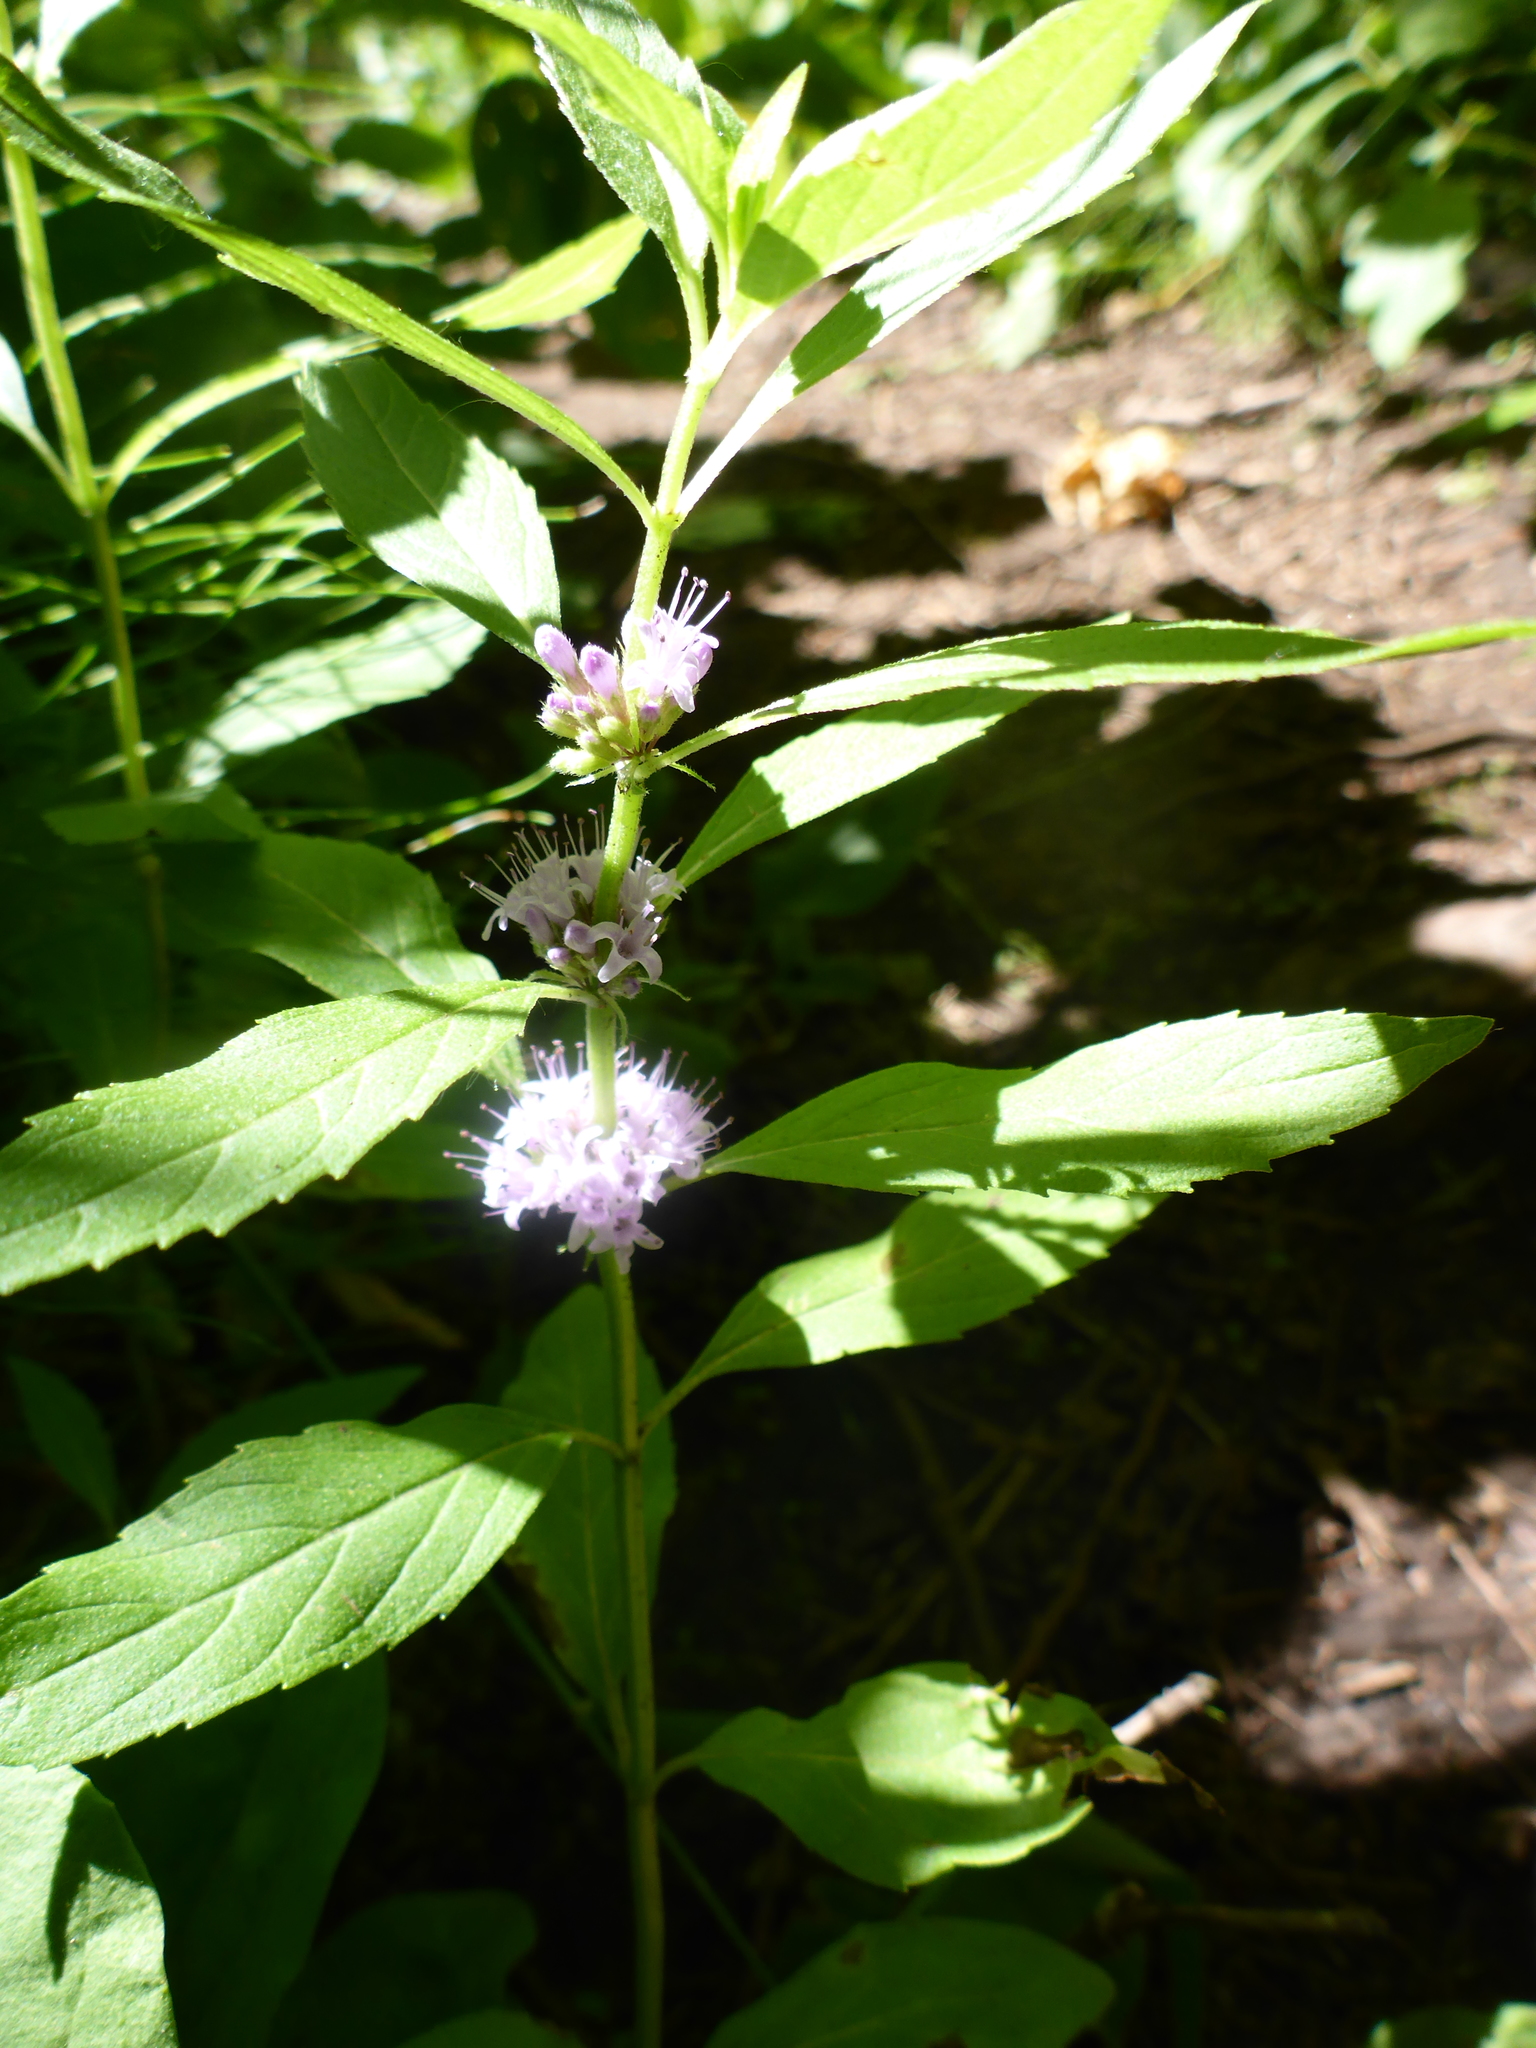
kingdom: Plantae
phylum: Tracheophyta
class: Magnoliopsida
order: Lamiales
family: Lamiaceae
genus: Mentha
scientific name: Mentha canadensis
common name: American corn mint
